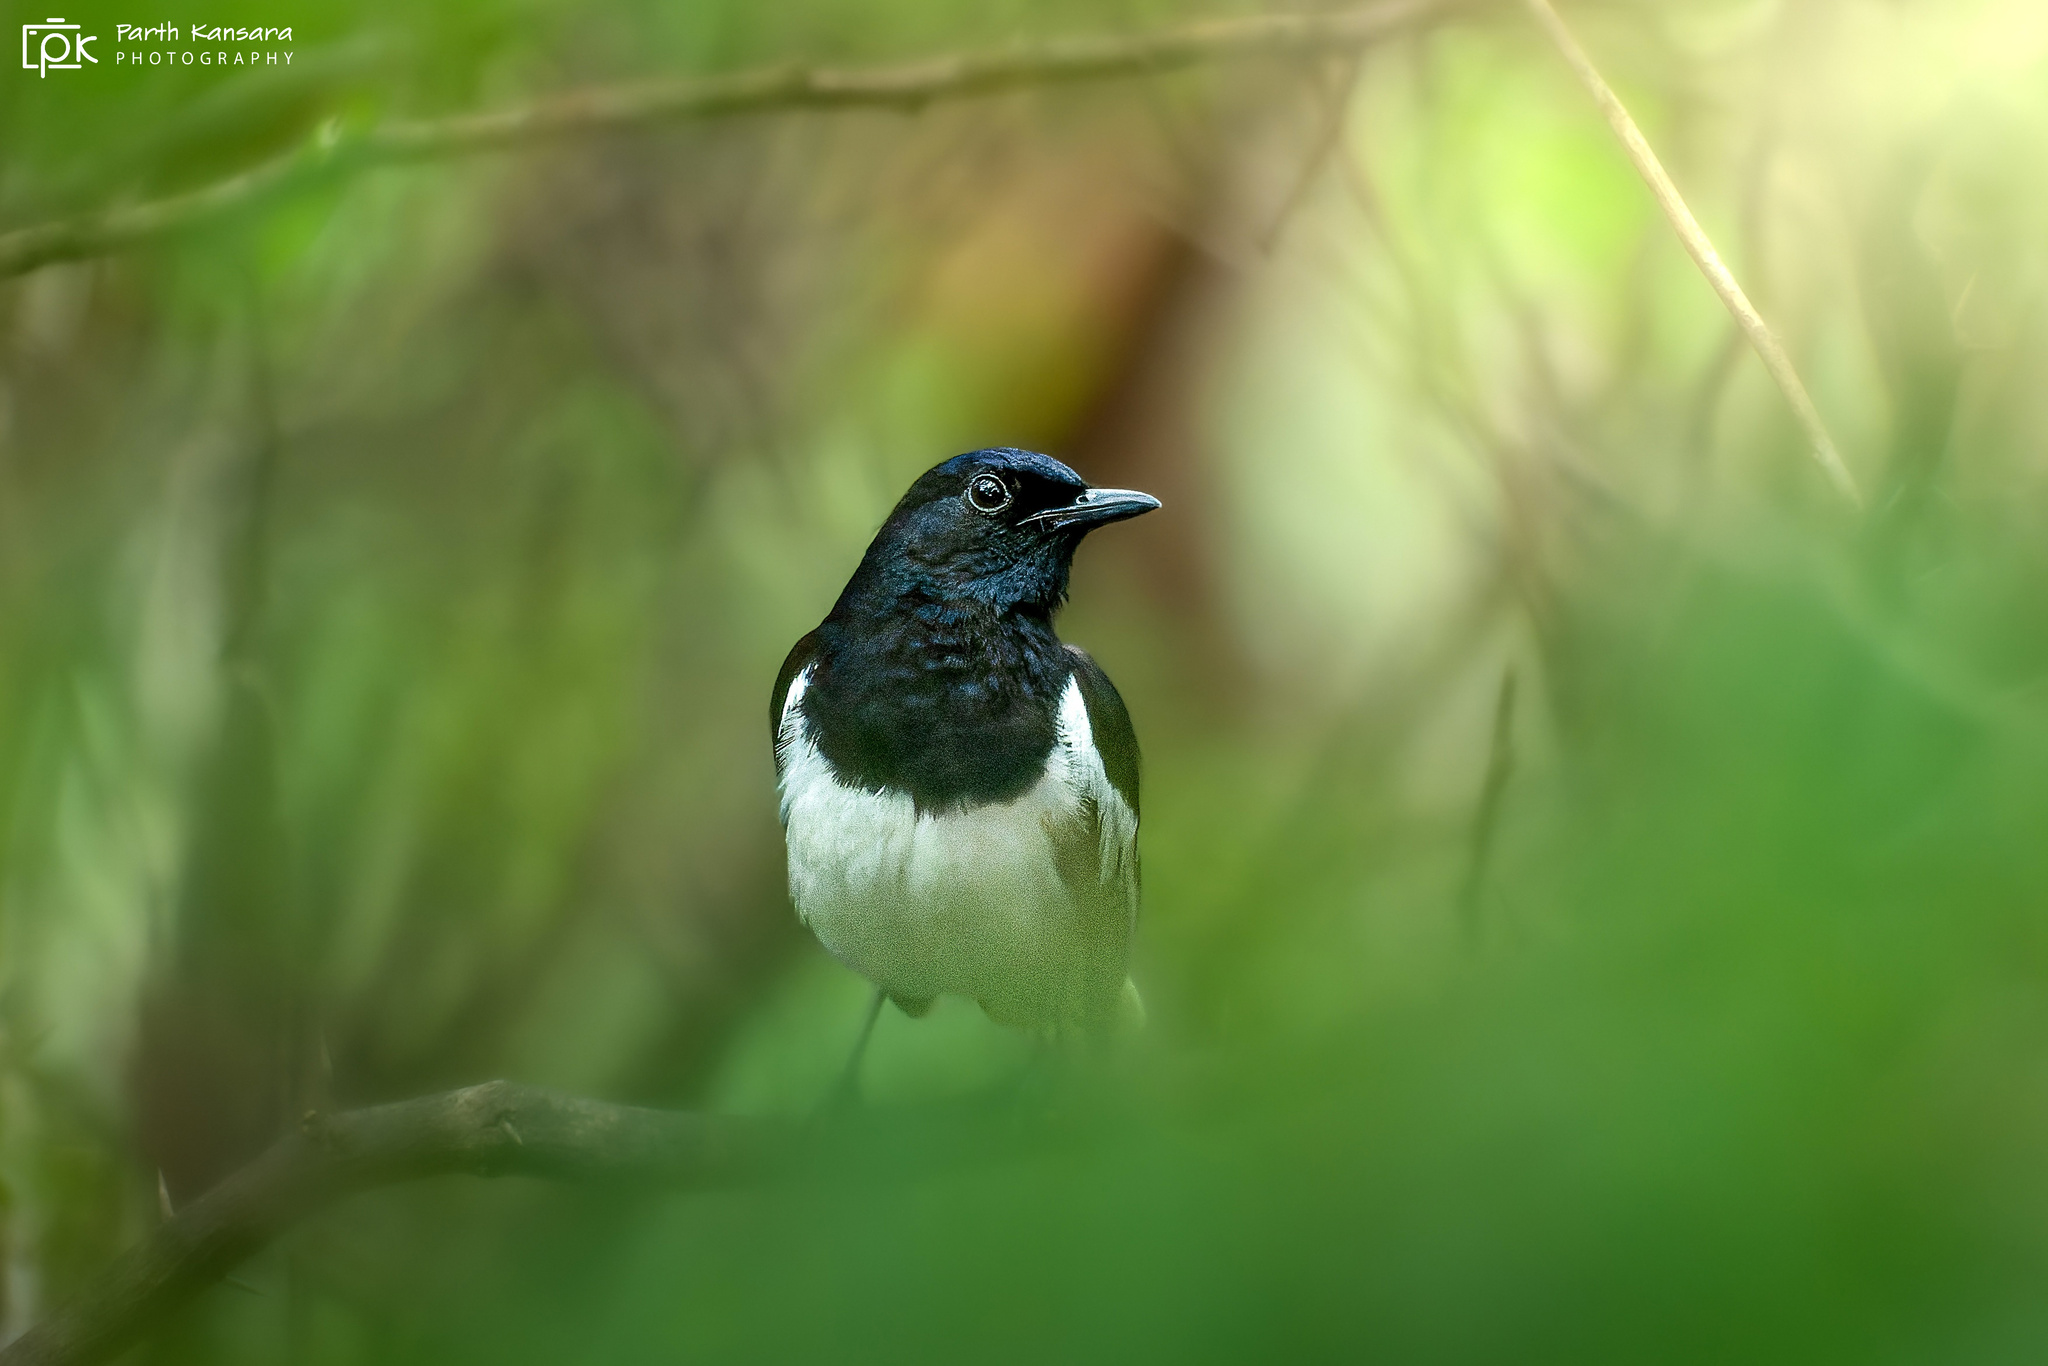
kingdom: Animalia
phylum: Chordata
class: Aves
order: Passeriformes
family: Muscicapidae
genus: Copsychus
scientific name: Copsychus saularis
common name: Oriental magpie-robin
